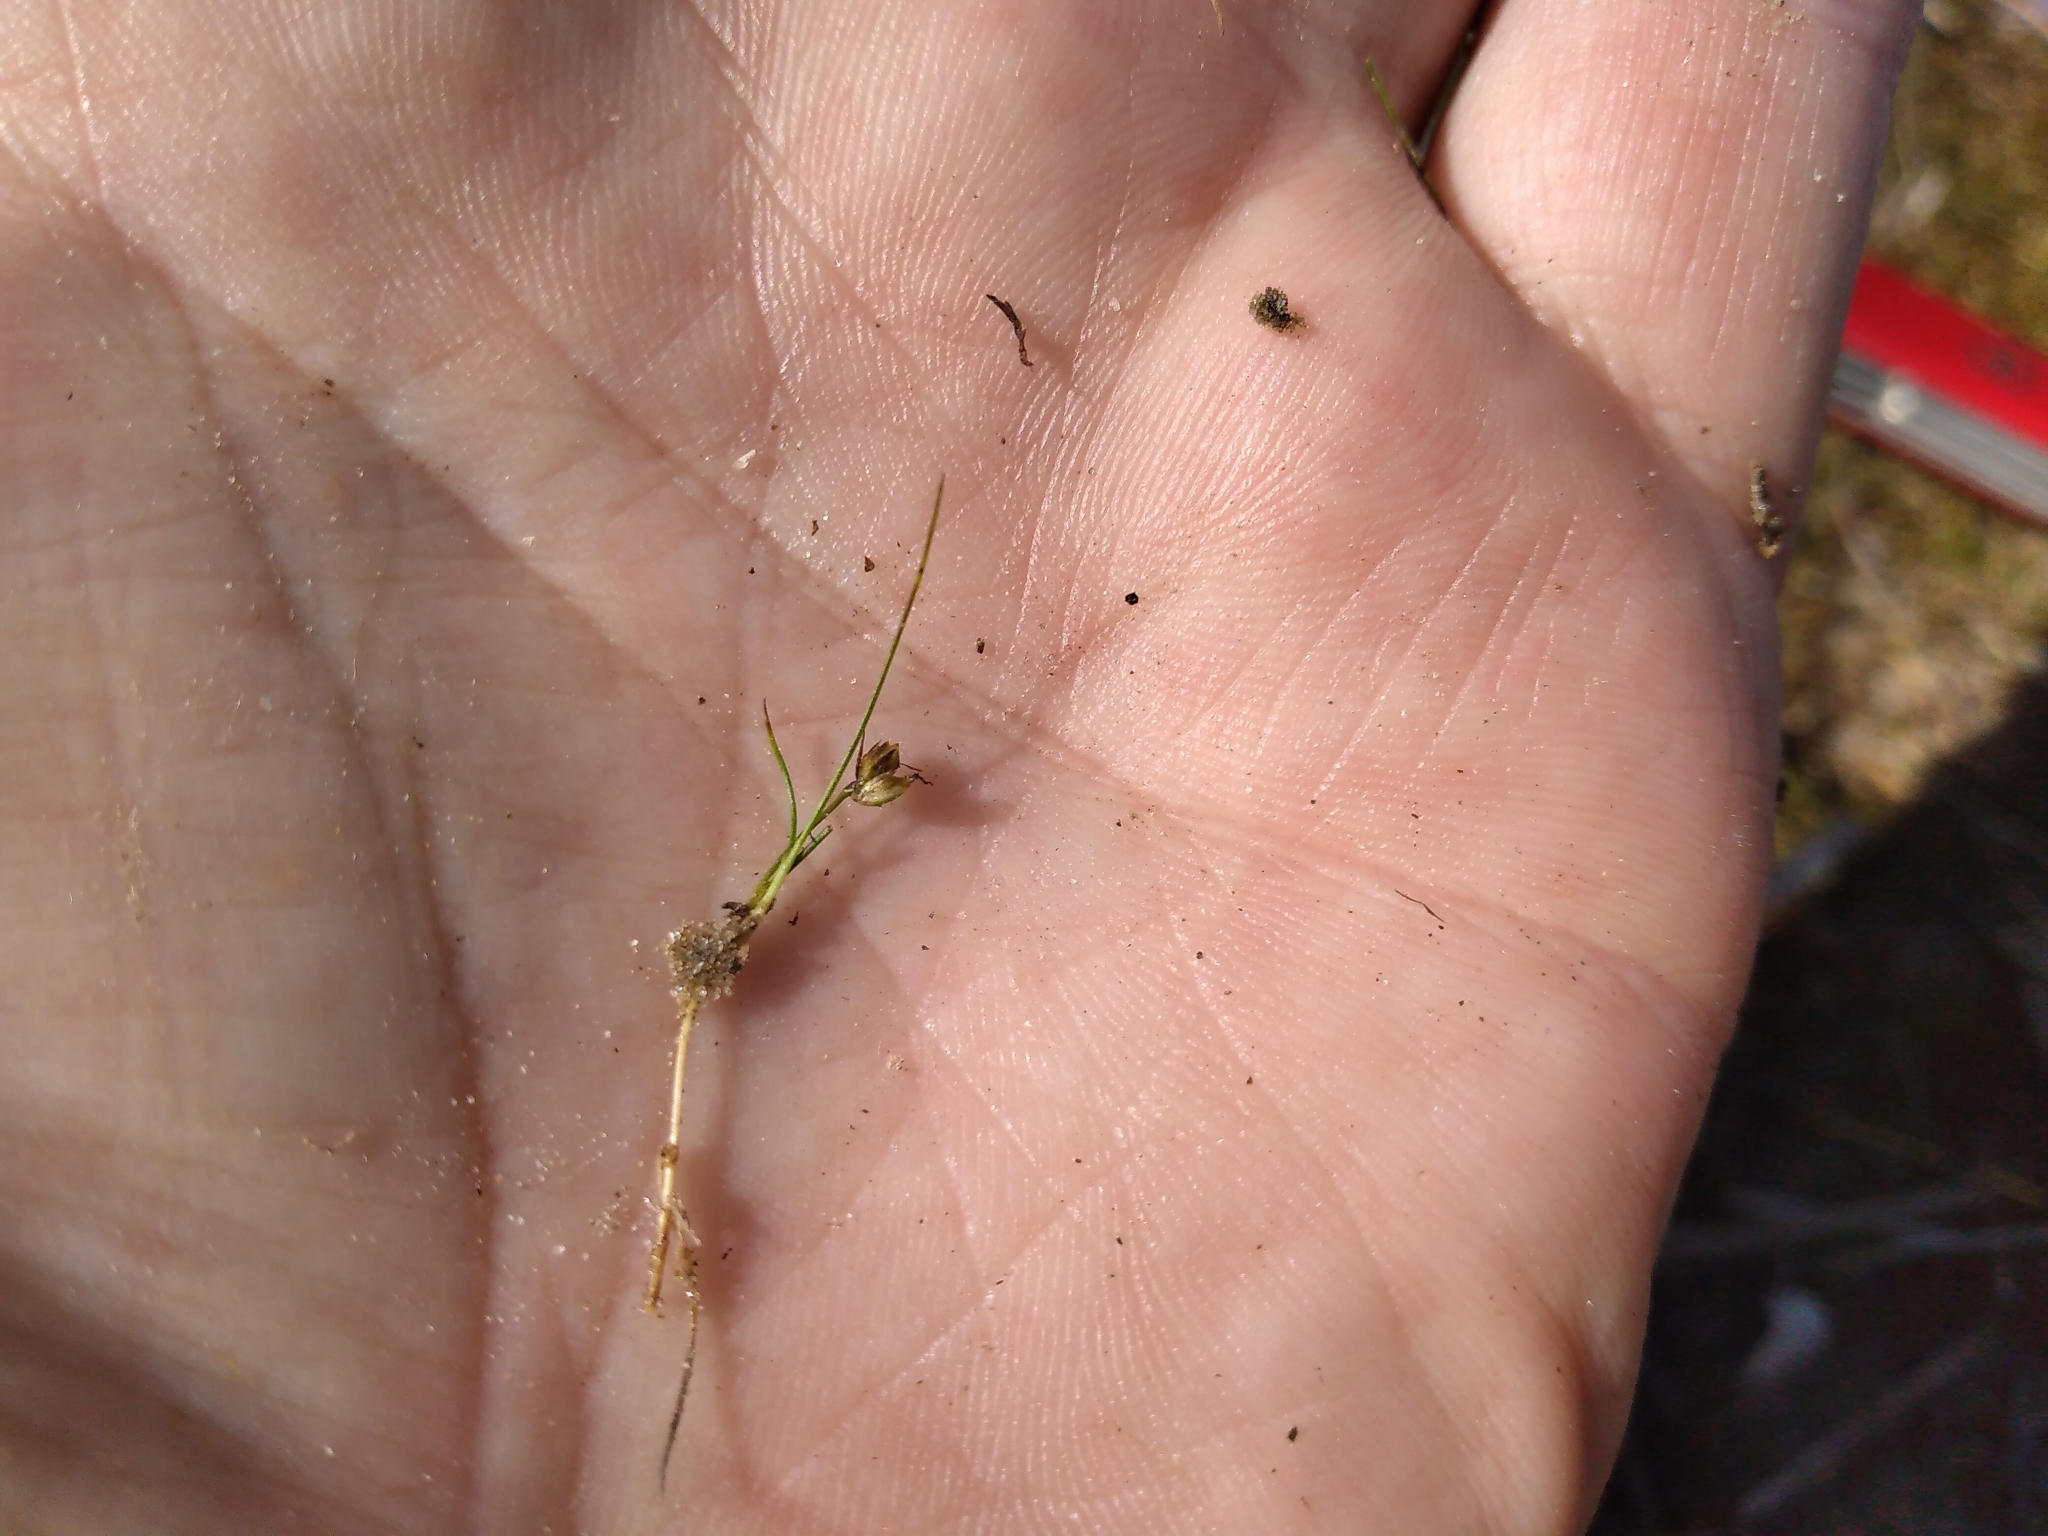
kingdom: Plantae
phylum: Tracheophyta
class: Liliopsida
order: Poales
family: Juncaceae
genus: Juncus
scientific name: Juncus pusillus
